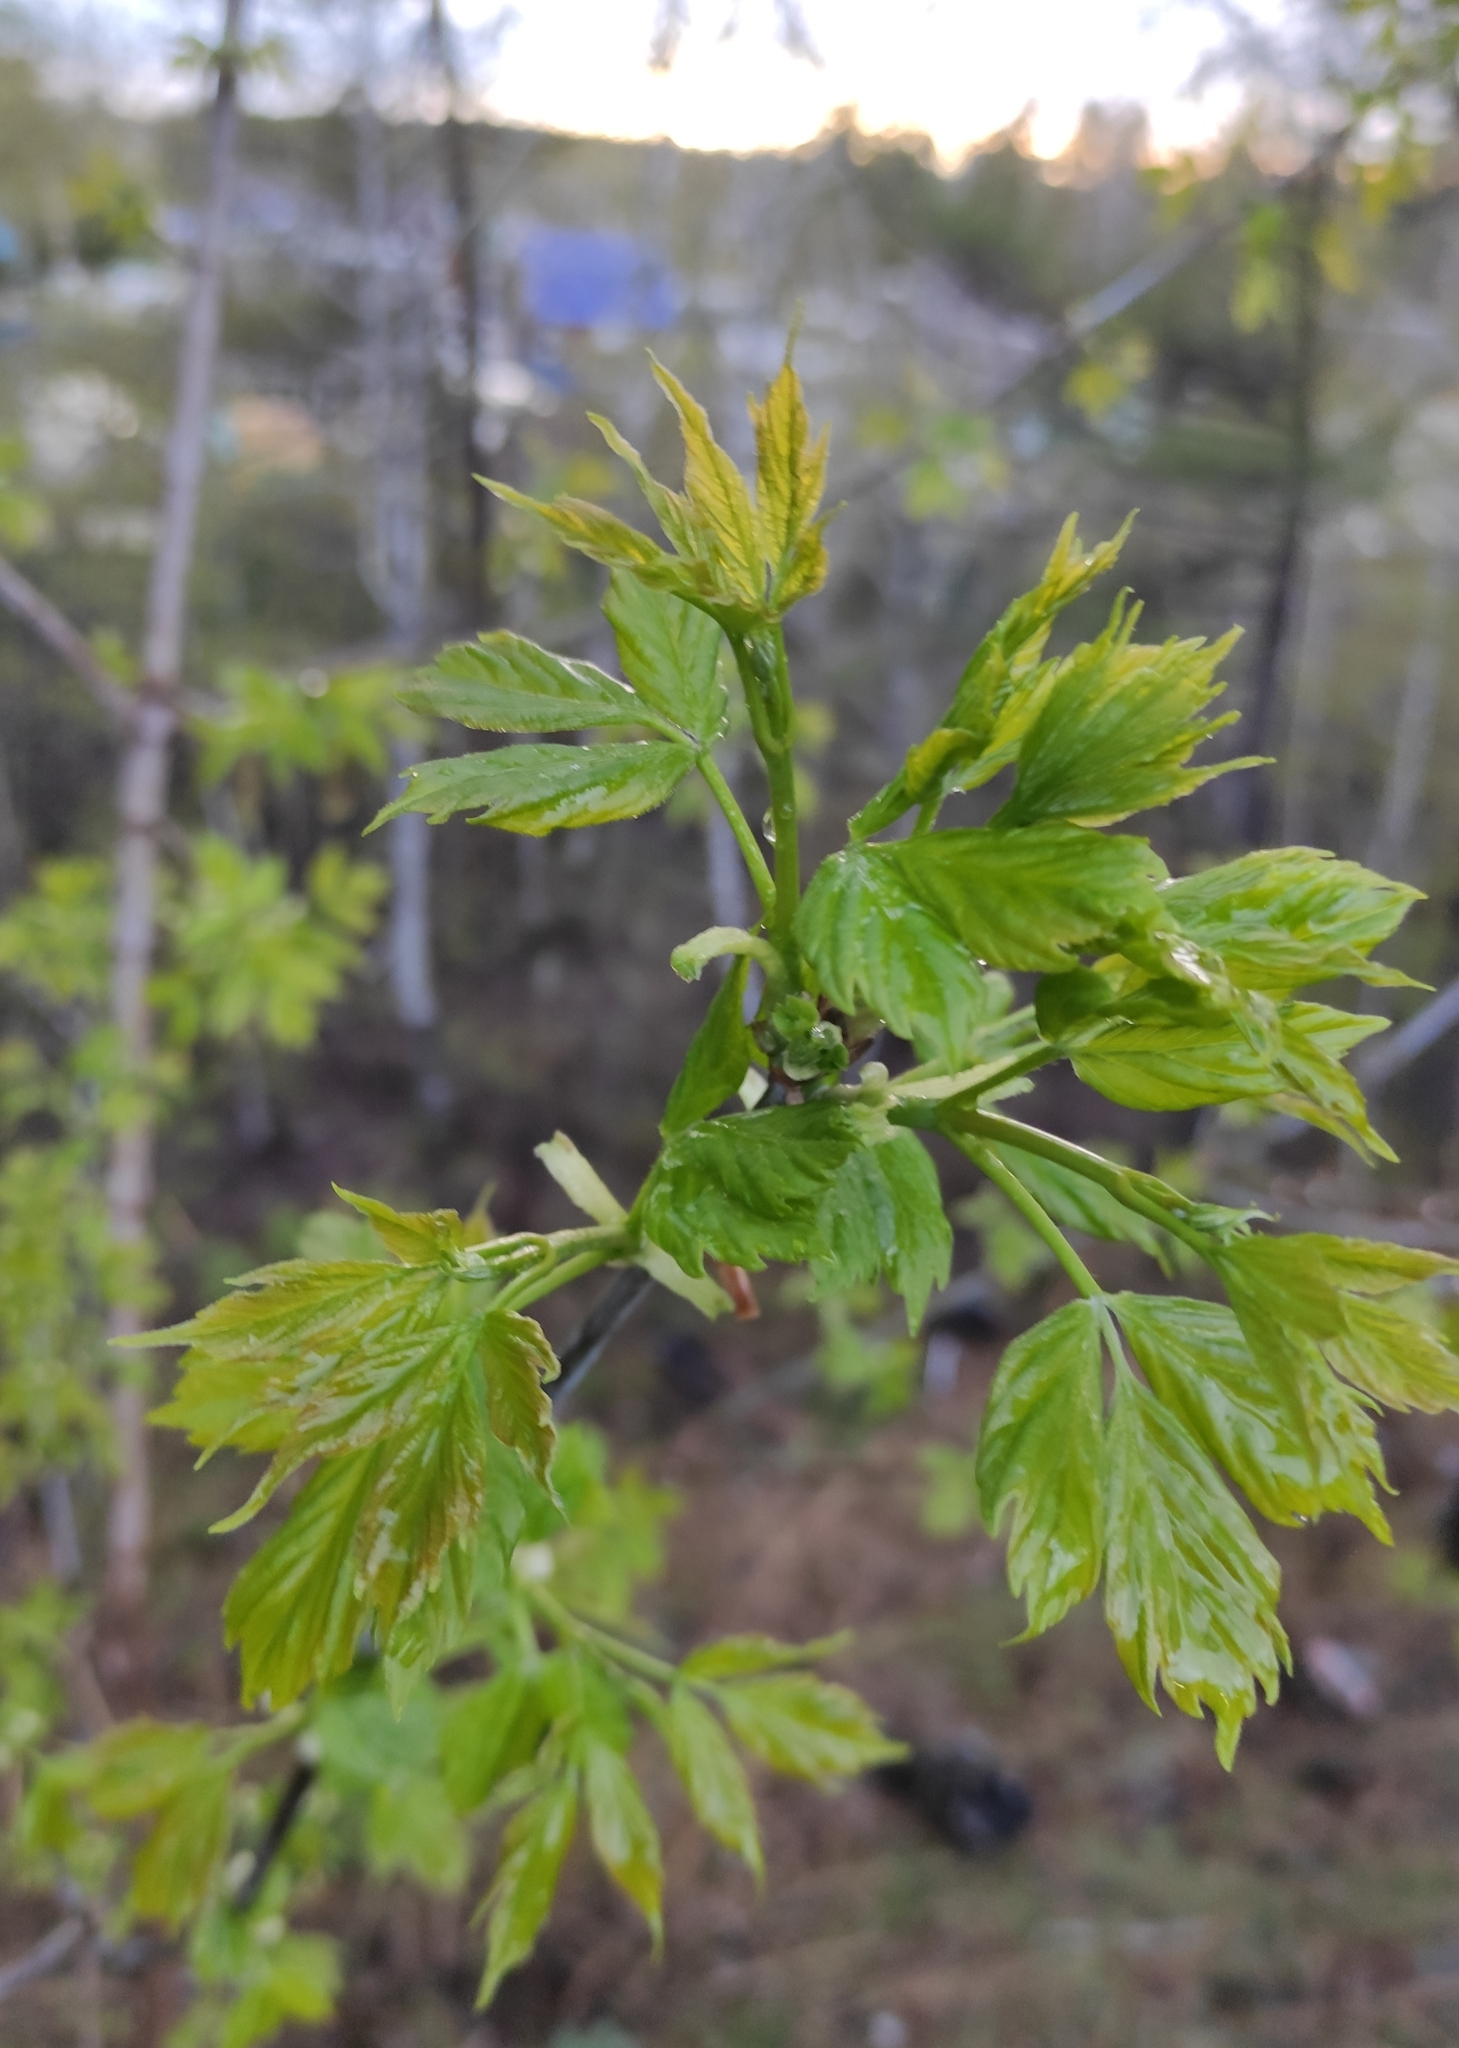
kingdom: Plantae
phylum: Tracheophyta
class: Magnoliopsida
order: Sapindales
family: Sapindaceae
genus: Acer
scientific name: Acer negundo
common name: Ashleaf maple
